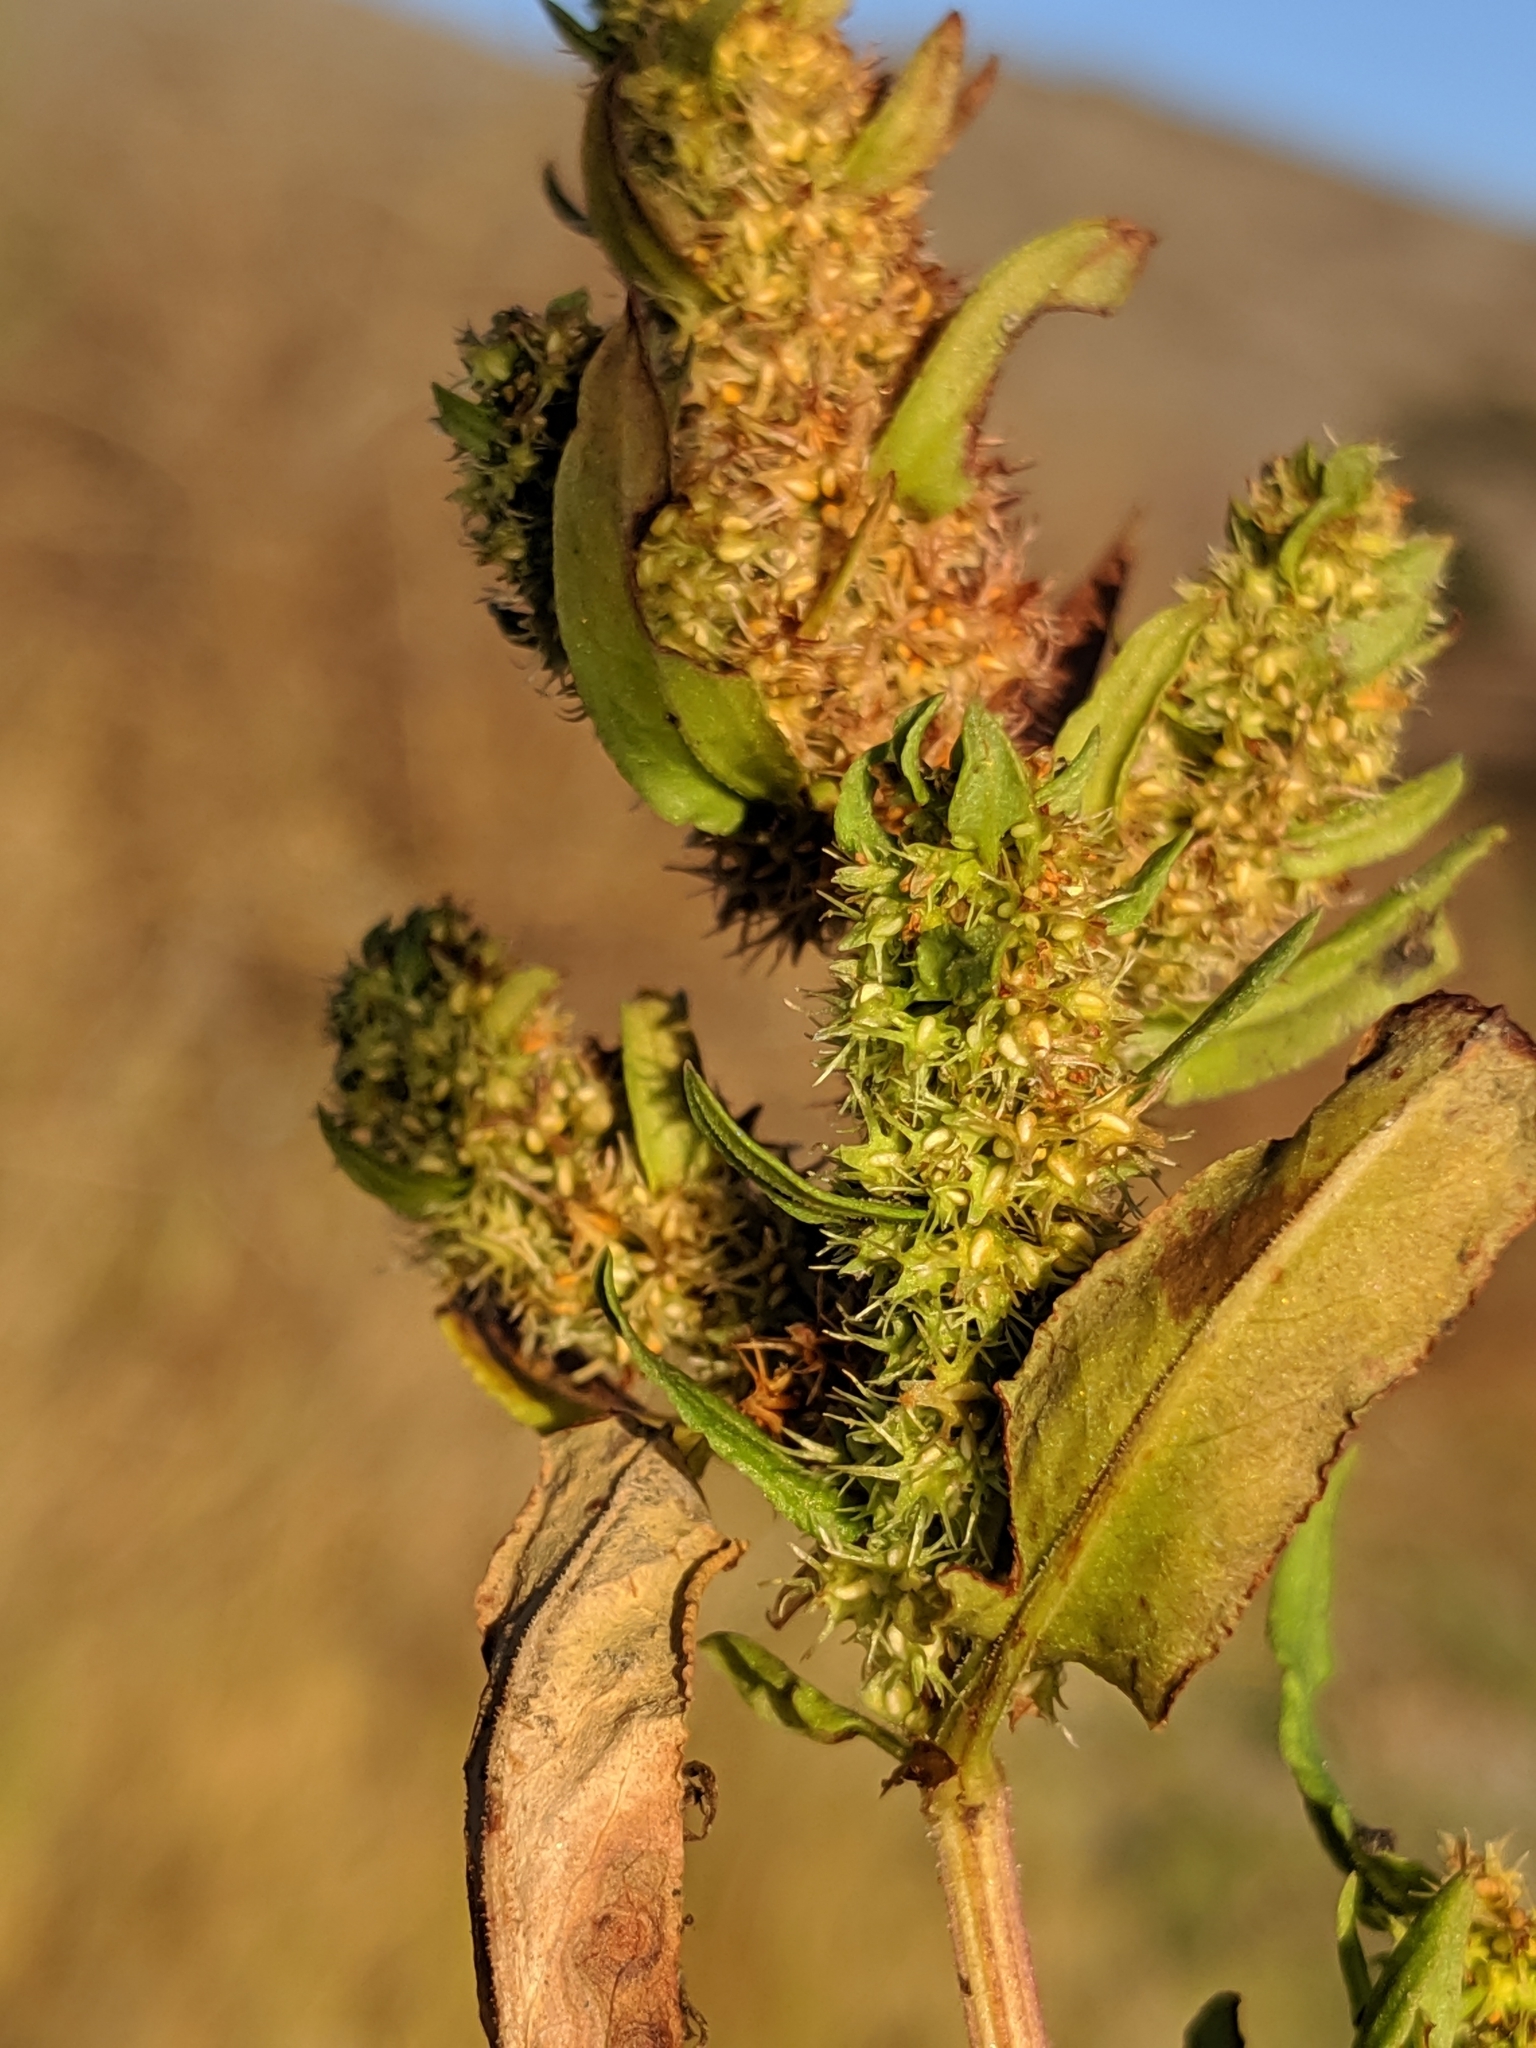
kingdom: Plantae
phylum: Tracheophyta
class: Magnoliopsida
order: Caryophyllales
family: Polygonaceae
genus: Rumex
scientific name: Rumex fueginus
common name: American golden dock
